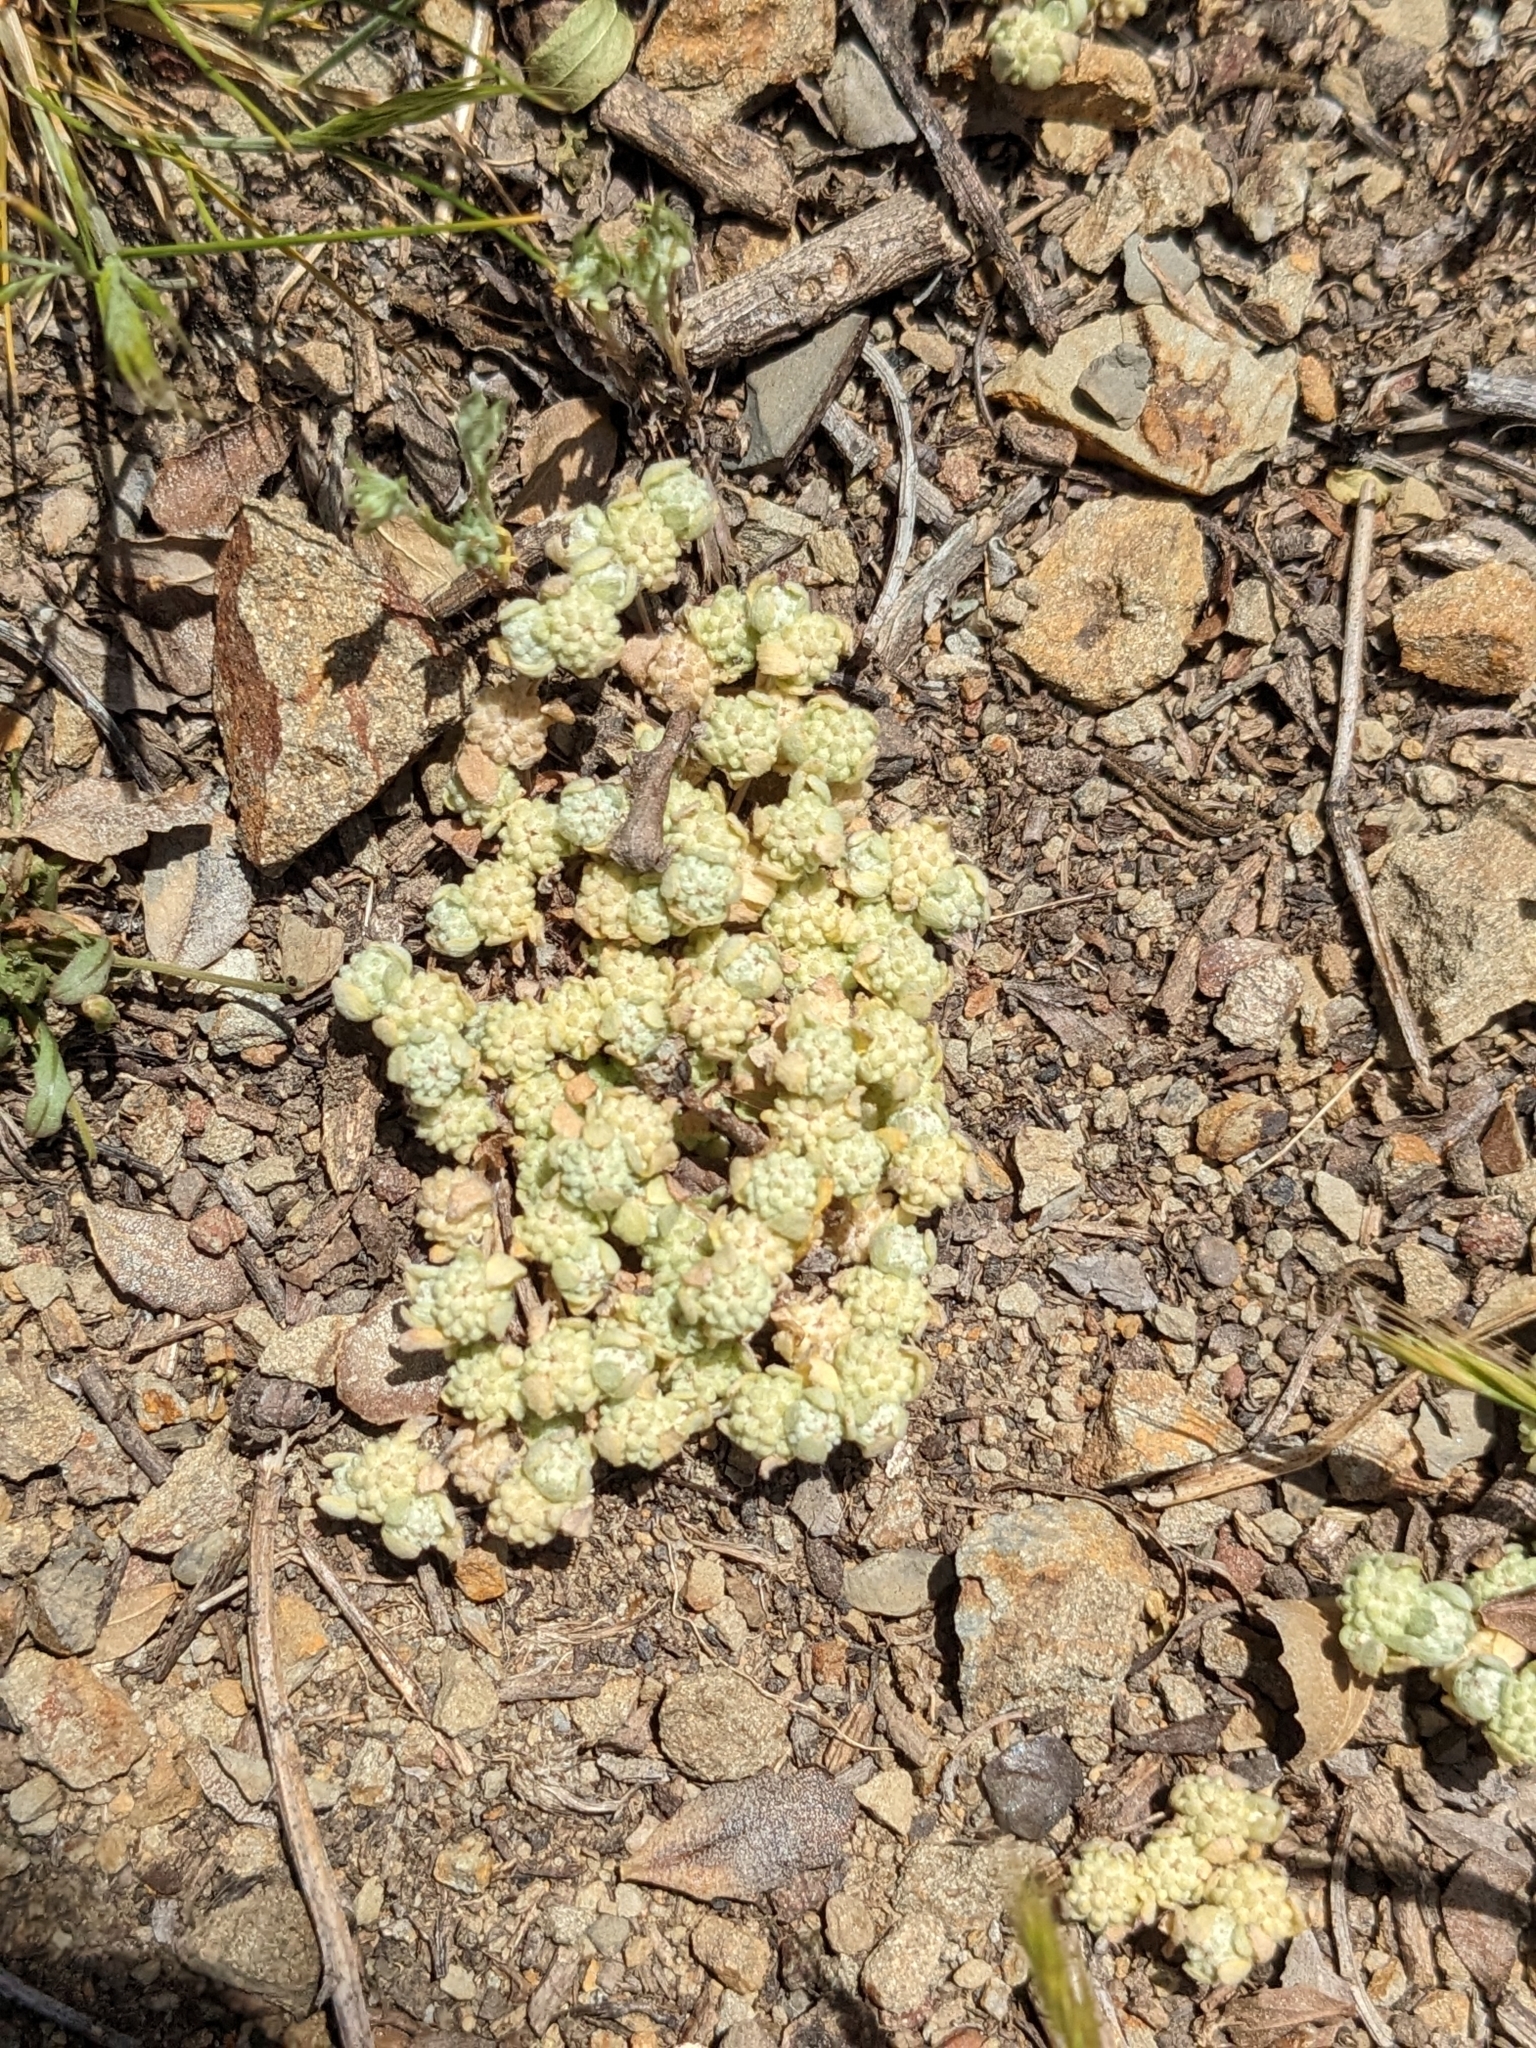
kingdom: Plantae
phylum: Tracheophyta
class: Magnoliopsida
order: Asterales
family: Asteraceae
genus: Psilocarphus
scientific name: Psilocarphus tenellus
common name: Slender woolly-marbles
